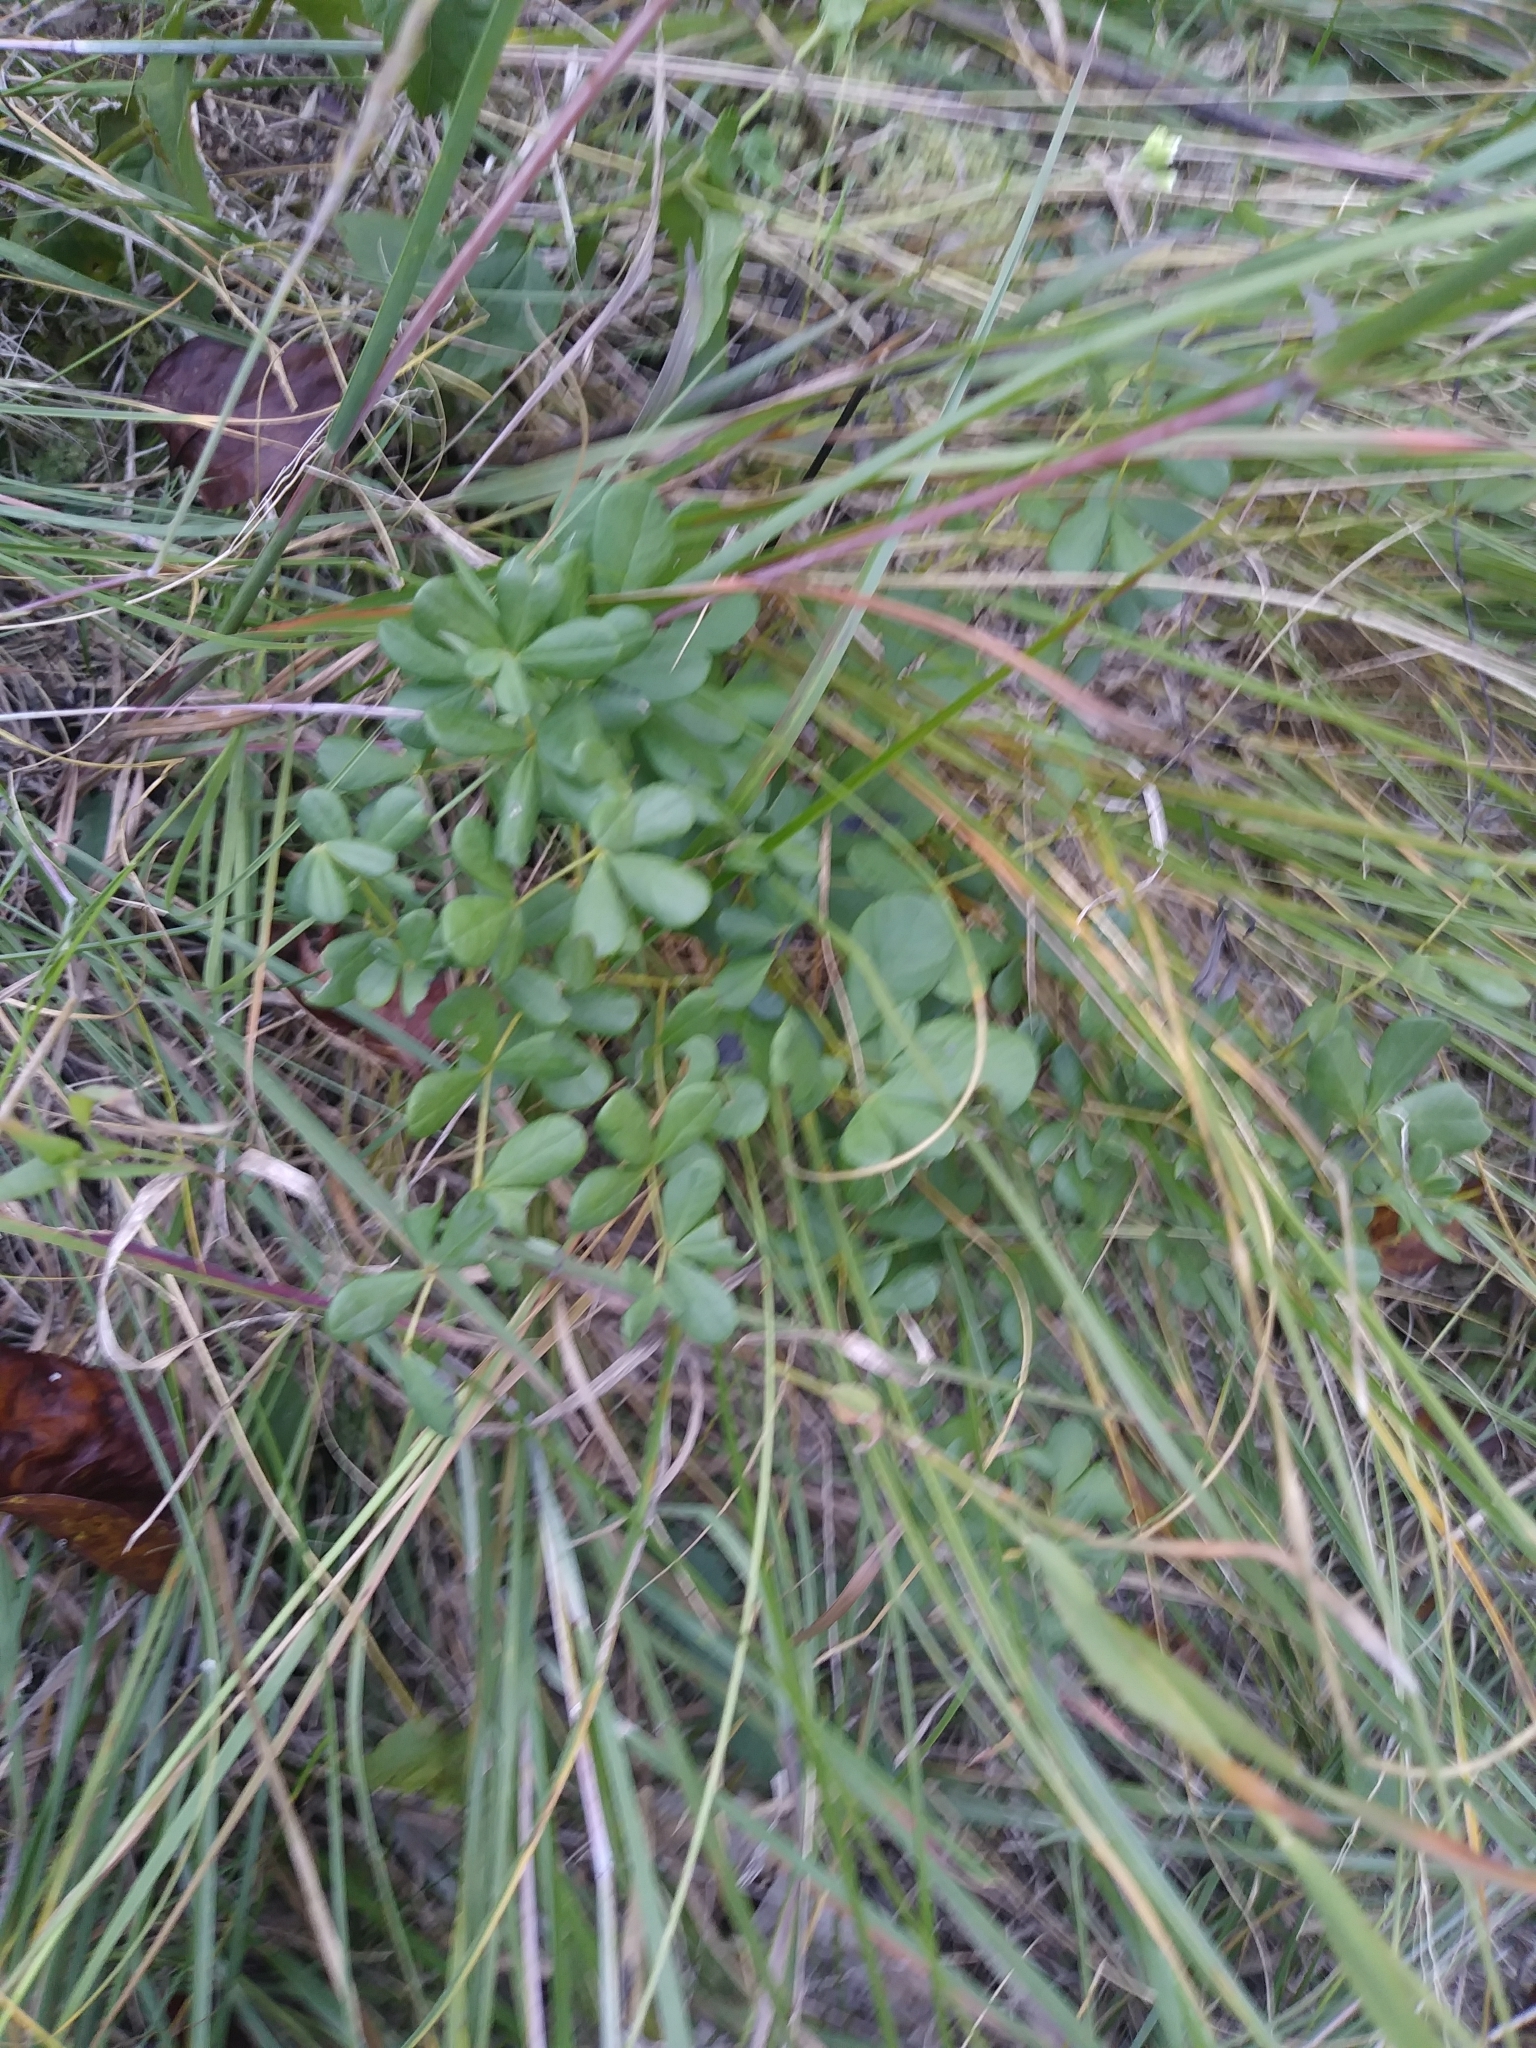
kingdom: Plantae
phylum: Tracheophyta
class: Magnoliopsida
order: Fabales
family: Fabaceae
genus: Baptisia
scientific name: Baptisia tinctoria
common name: Wild indigo
